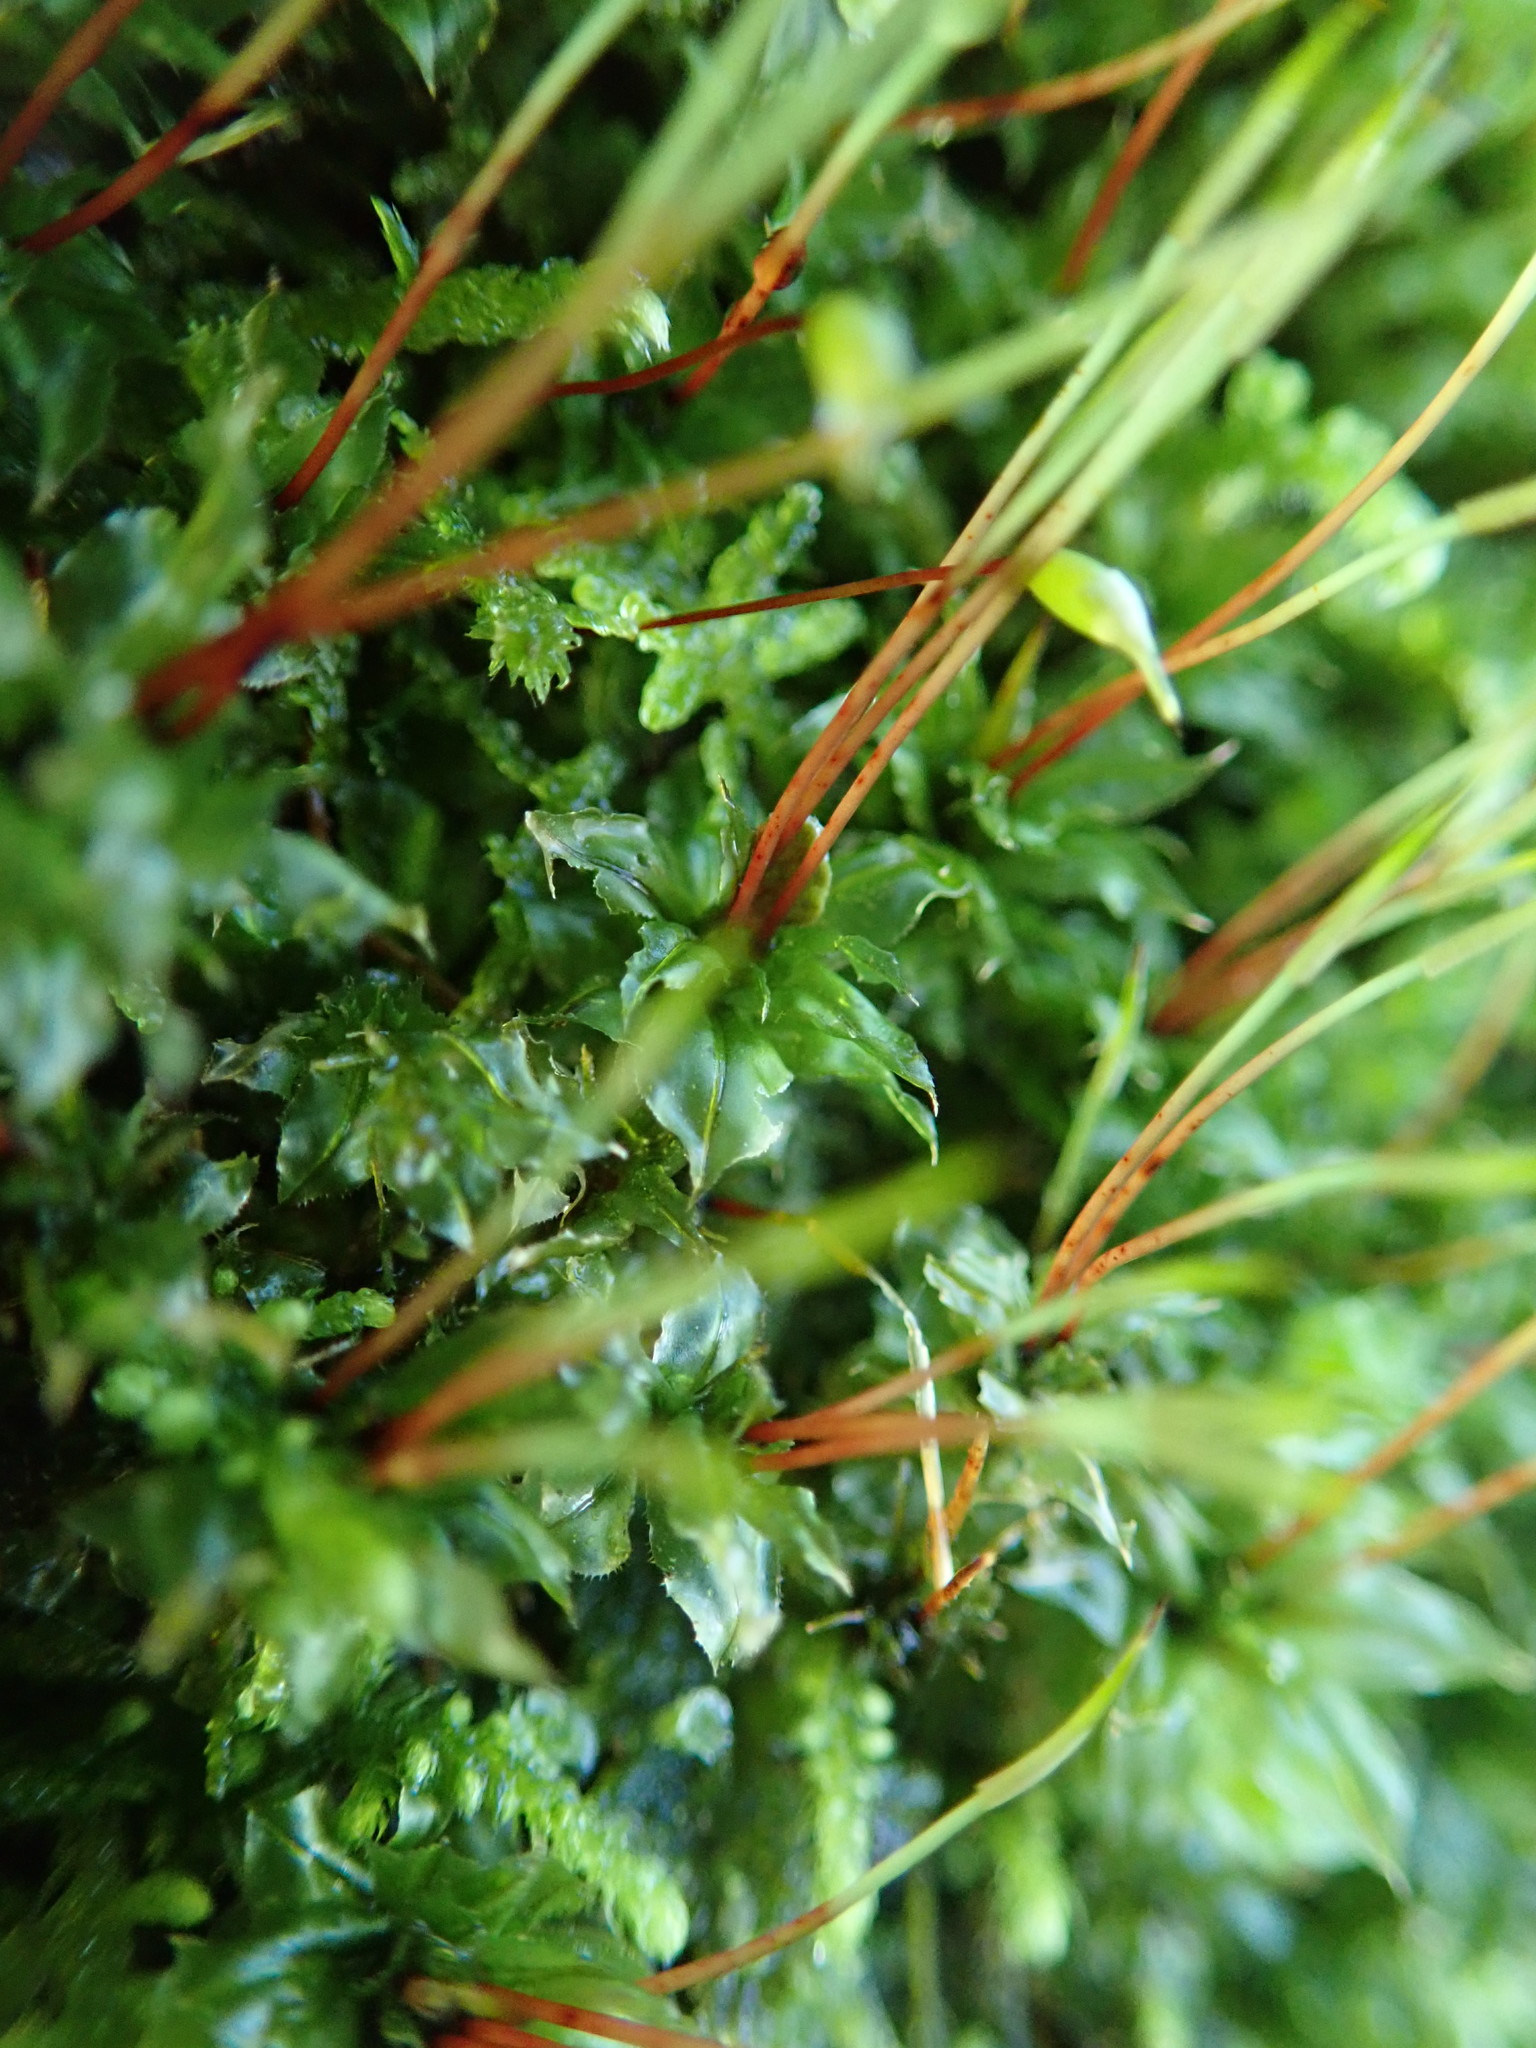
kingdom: Plantae
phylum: Bryophyta
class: Bryopsida
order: Bryales
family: Mniaceae
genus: Plagiomnium
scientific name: Plagiomnium venustum
